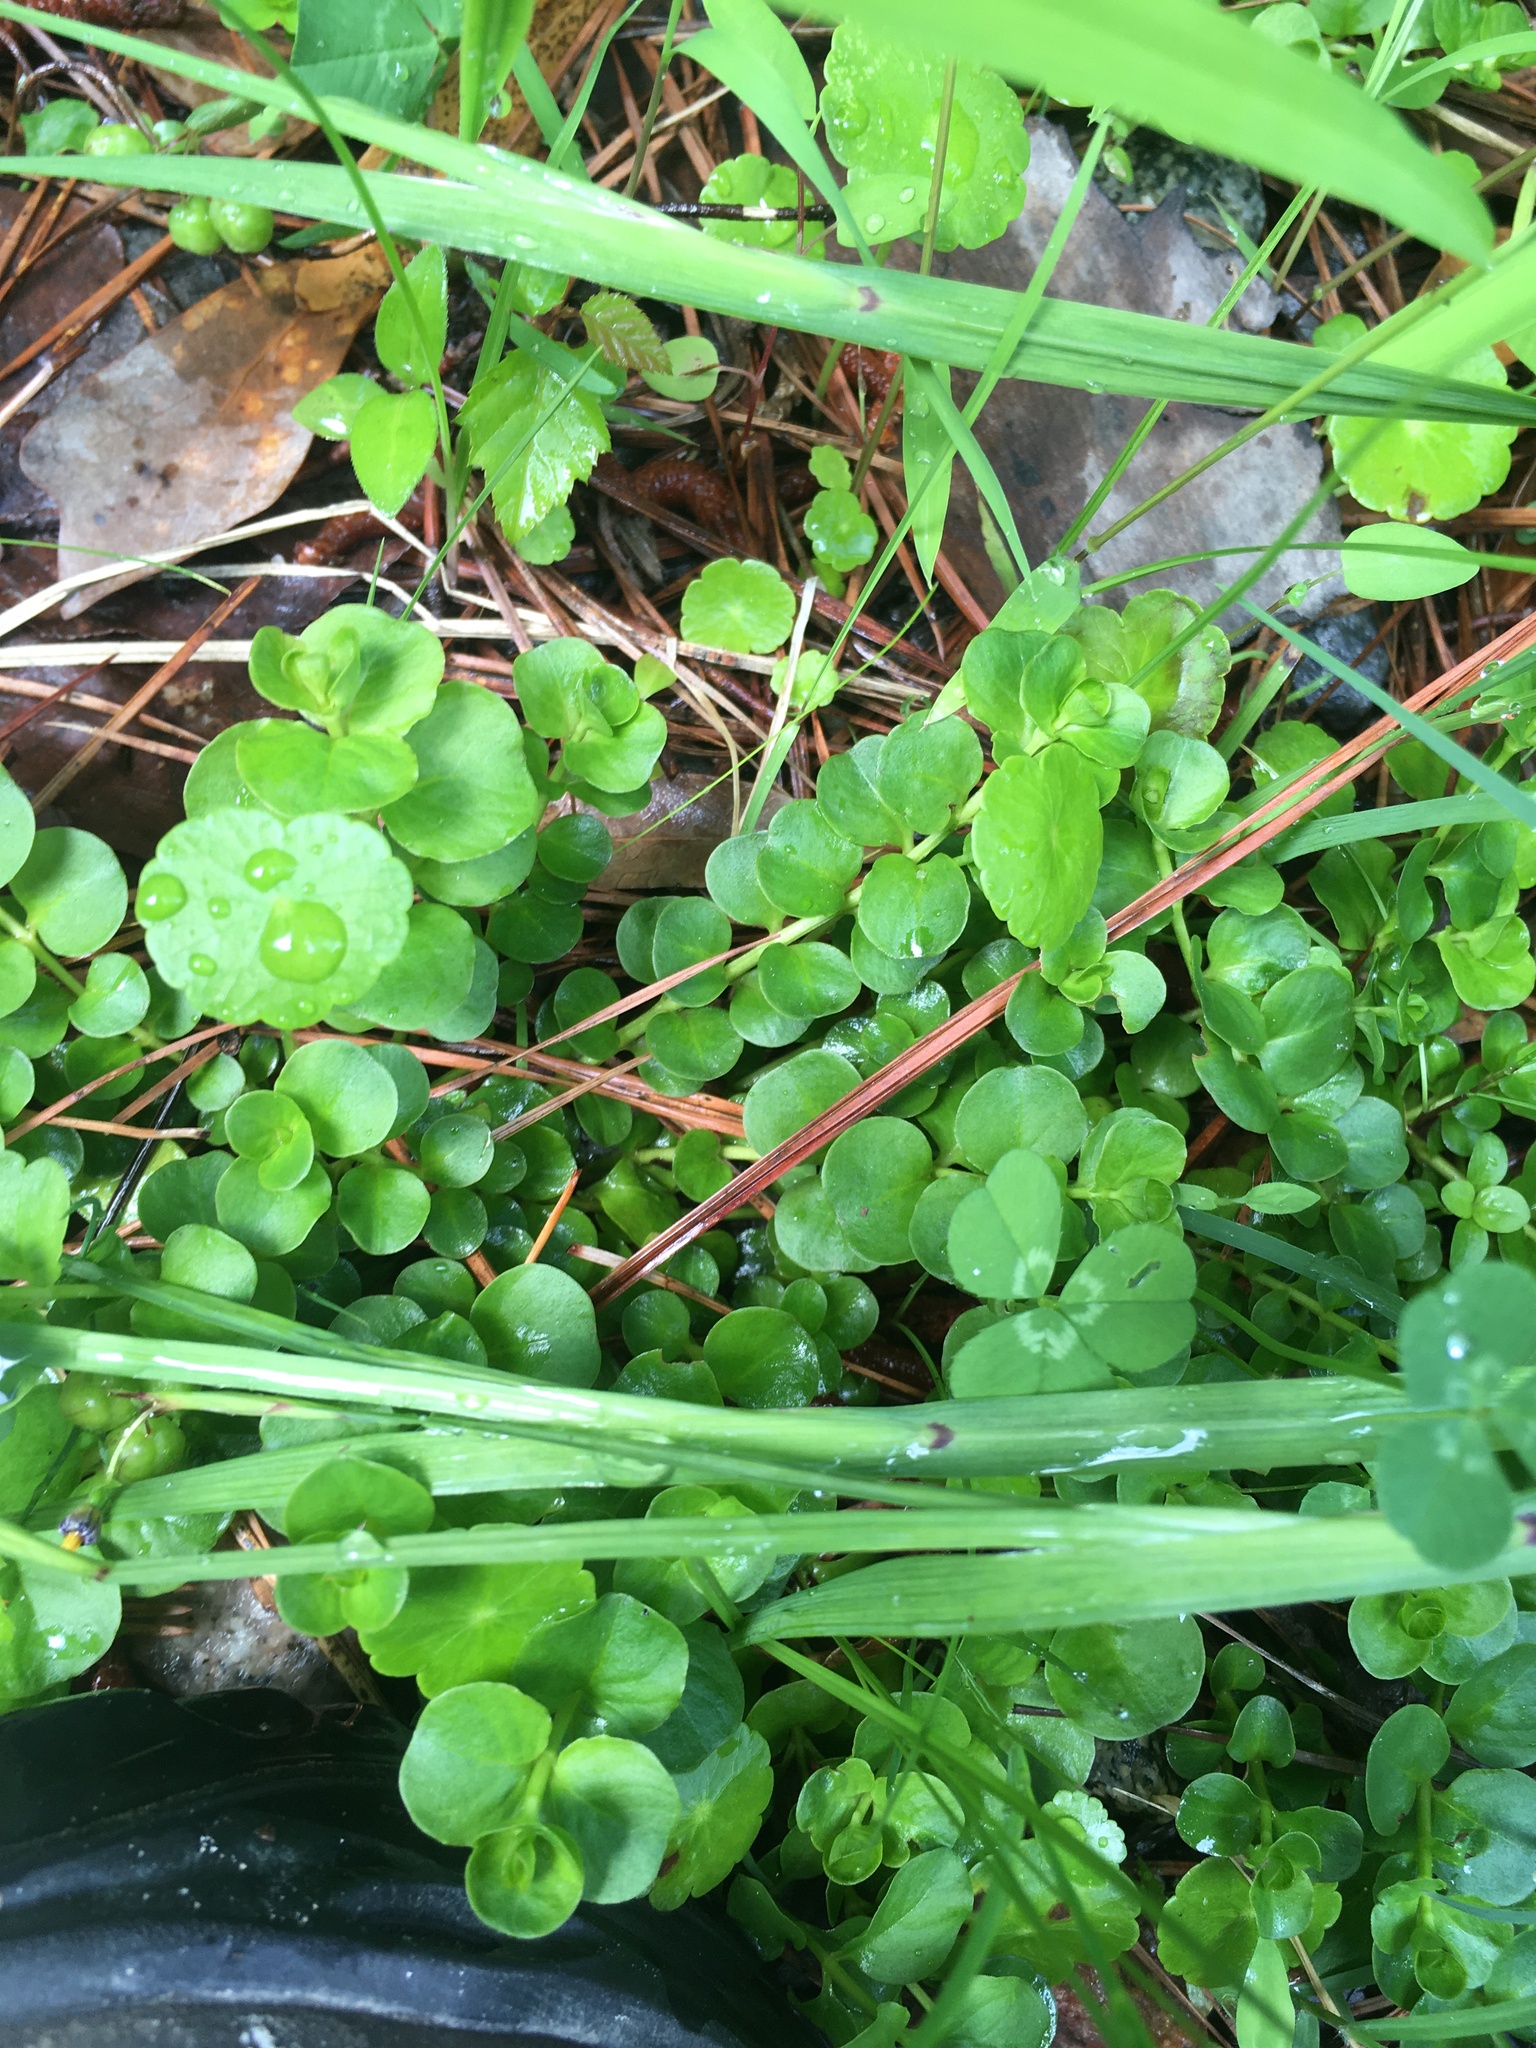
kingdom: Plantae
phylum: Tracheophyta
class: Magnoliopsida
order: Ericales
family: Primulaceae
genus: Lysimachia
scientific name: Lysimachia nummularia
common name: Moneywort
